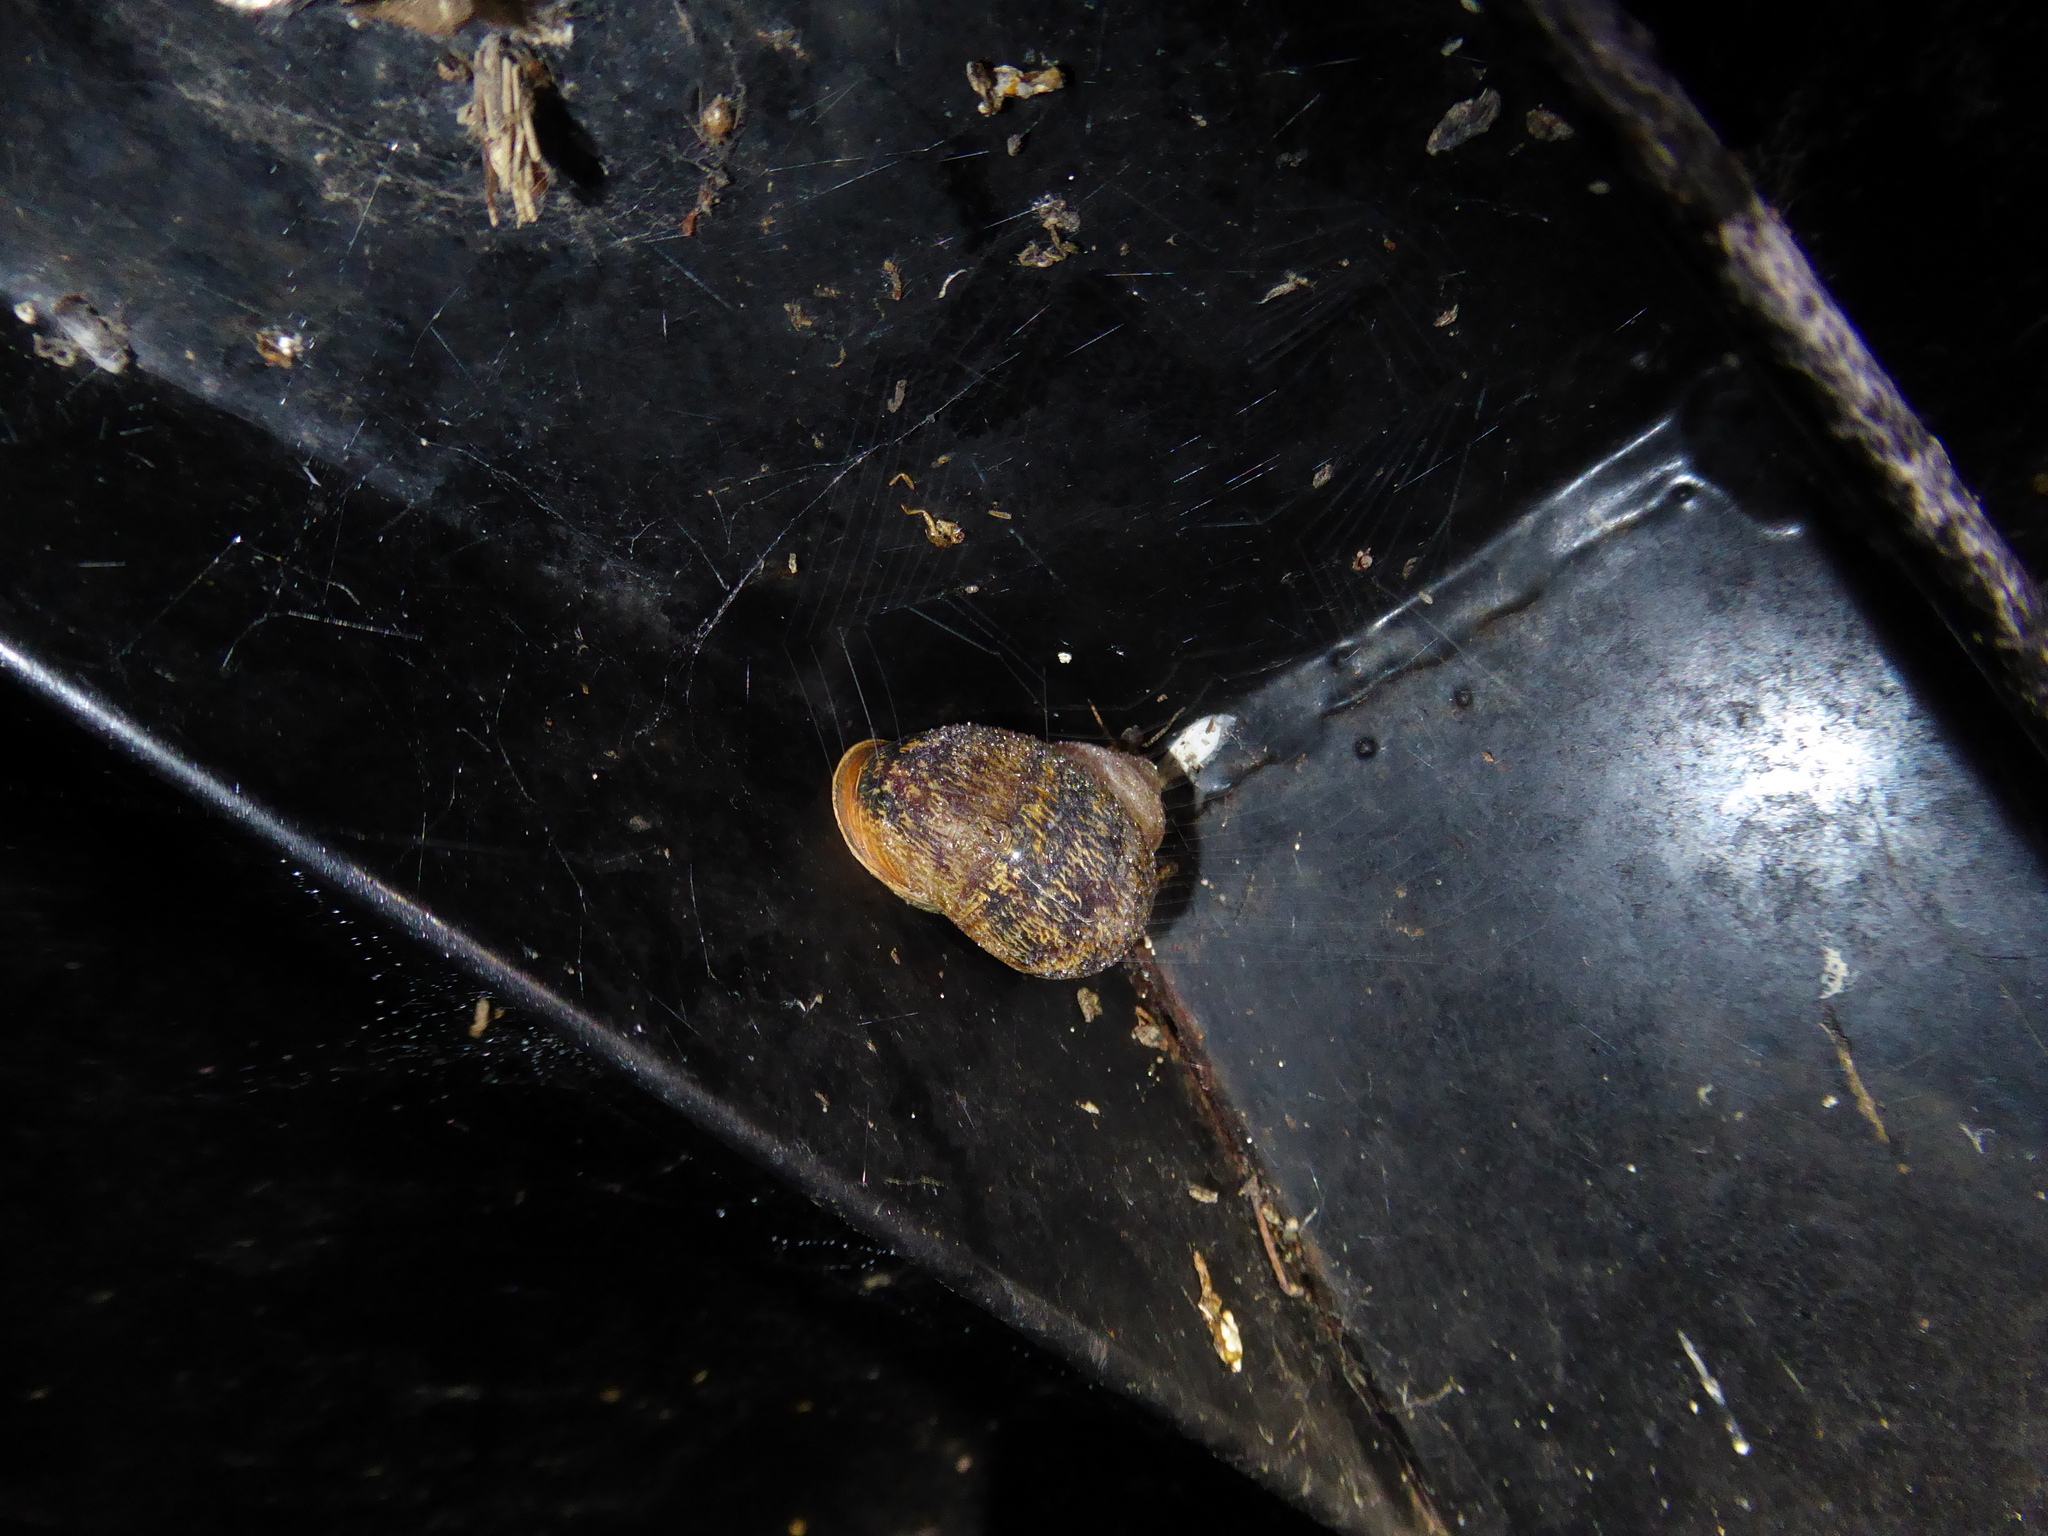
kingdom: Animalia
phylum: Mollusca
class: Gastropoda
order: Stylommatophora
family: Helicidae
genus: Cornu
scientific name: Cornu aspersum
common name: Brown garden snail
